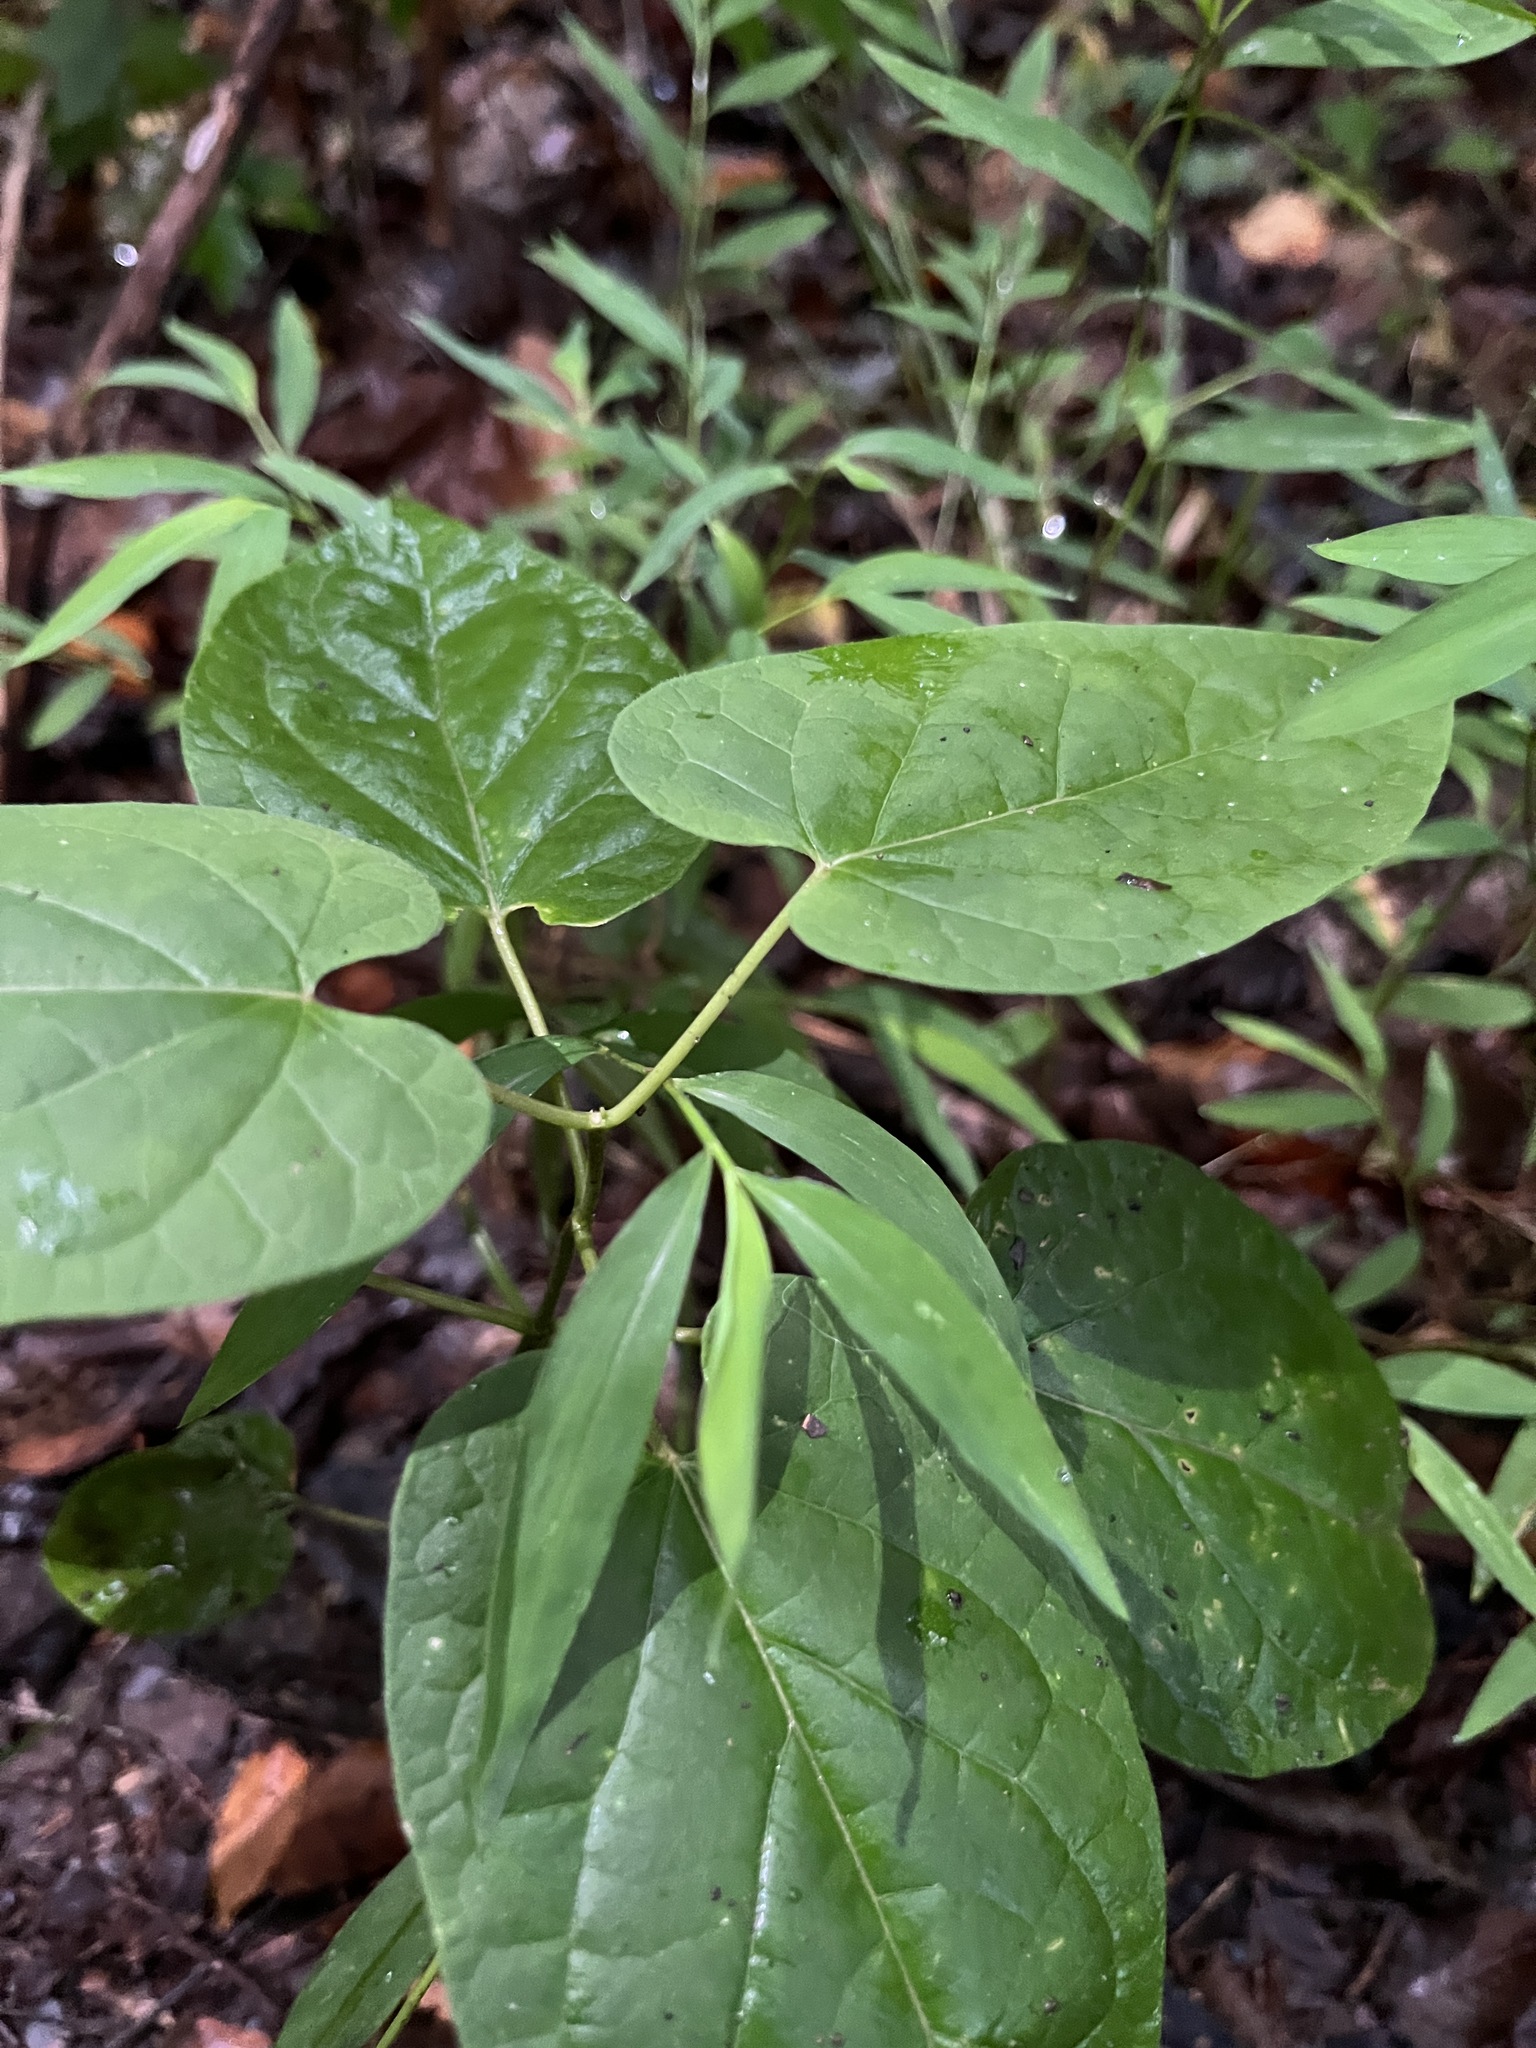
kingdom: Plantae
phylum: Tracheophyta
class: Magnoliopsida
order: Gentianales
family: Apocynaceae
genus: Gonolobus
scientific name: Gonolobus suberosus
